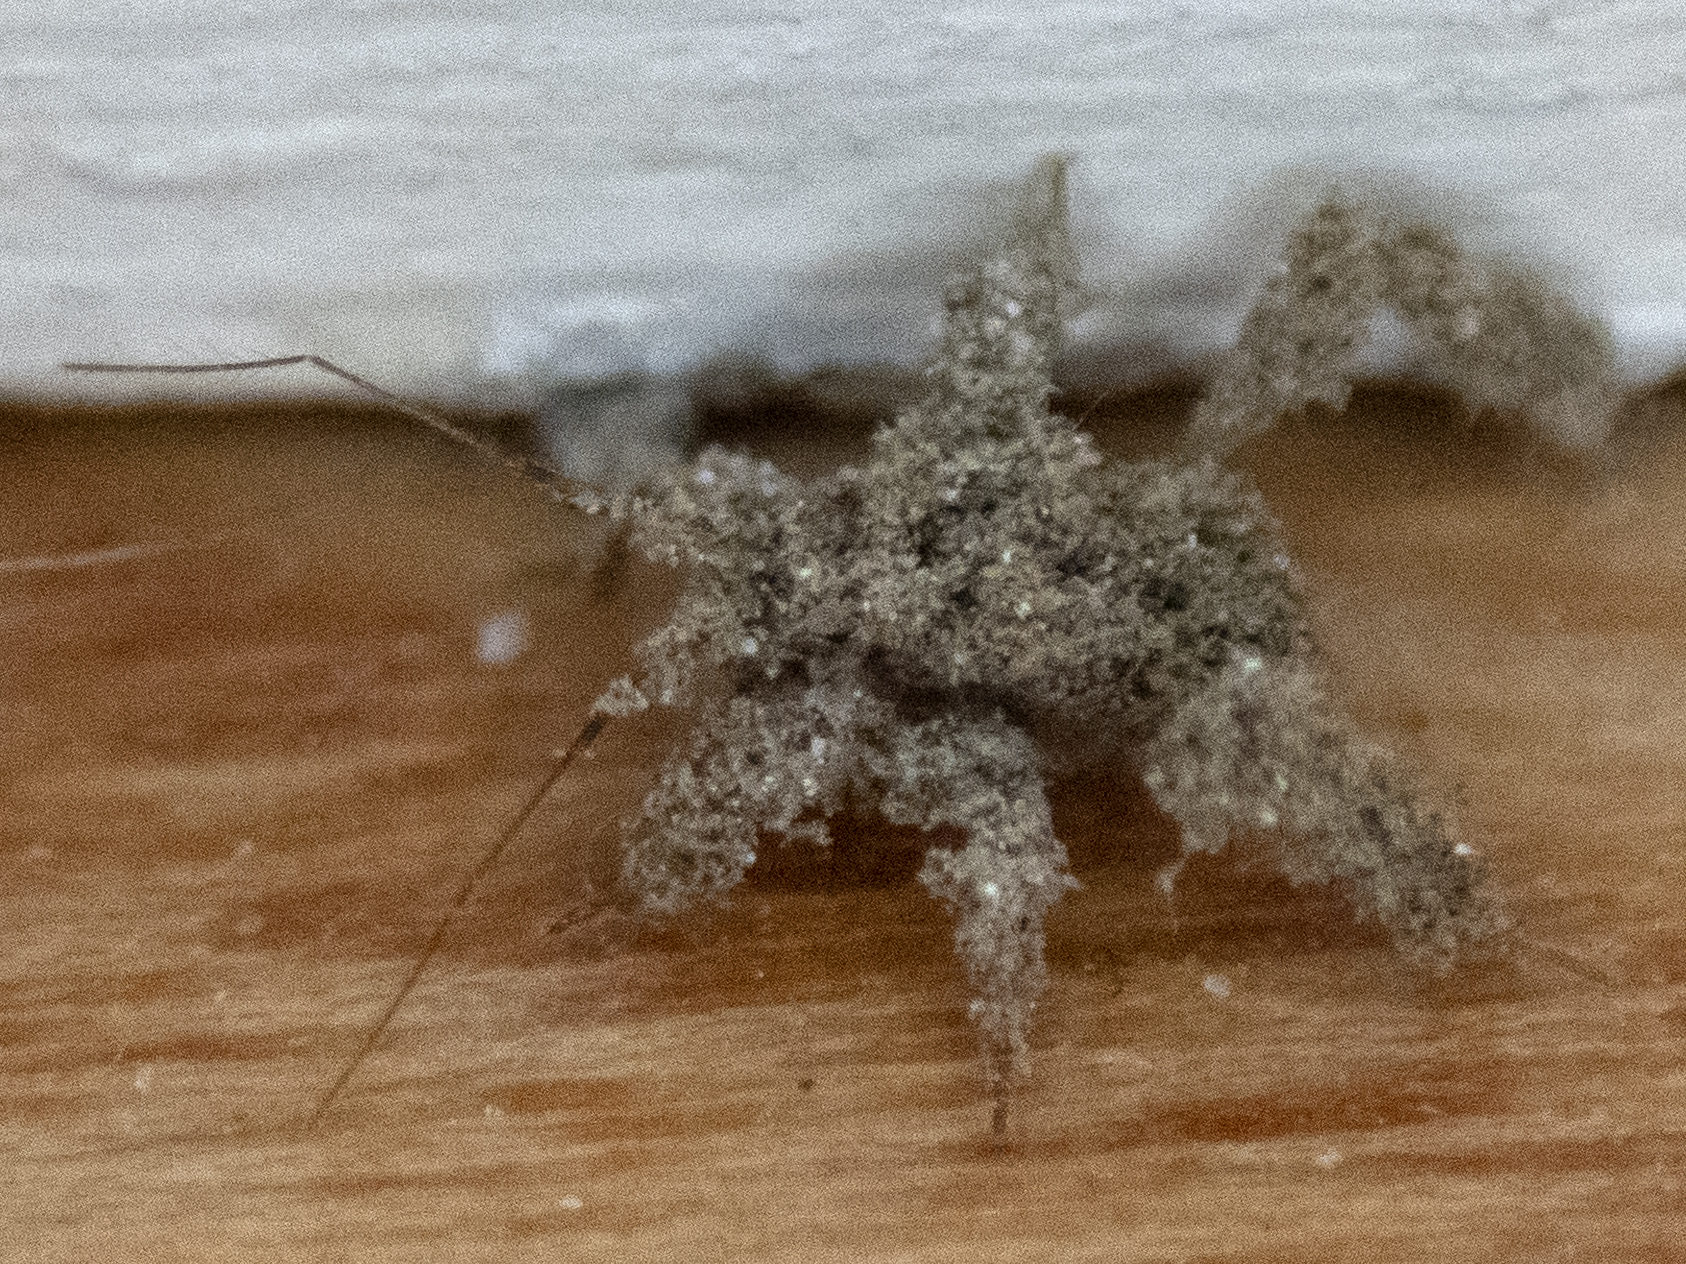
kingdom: Animalia
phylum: Arthropoda
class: Insecta
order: Hemiptera
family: Reduviidae
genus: Reduvius
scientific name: Reduvius personatus
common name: Masked hunter
